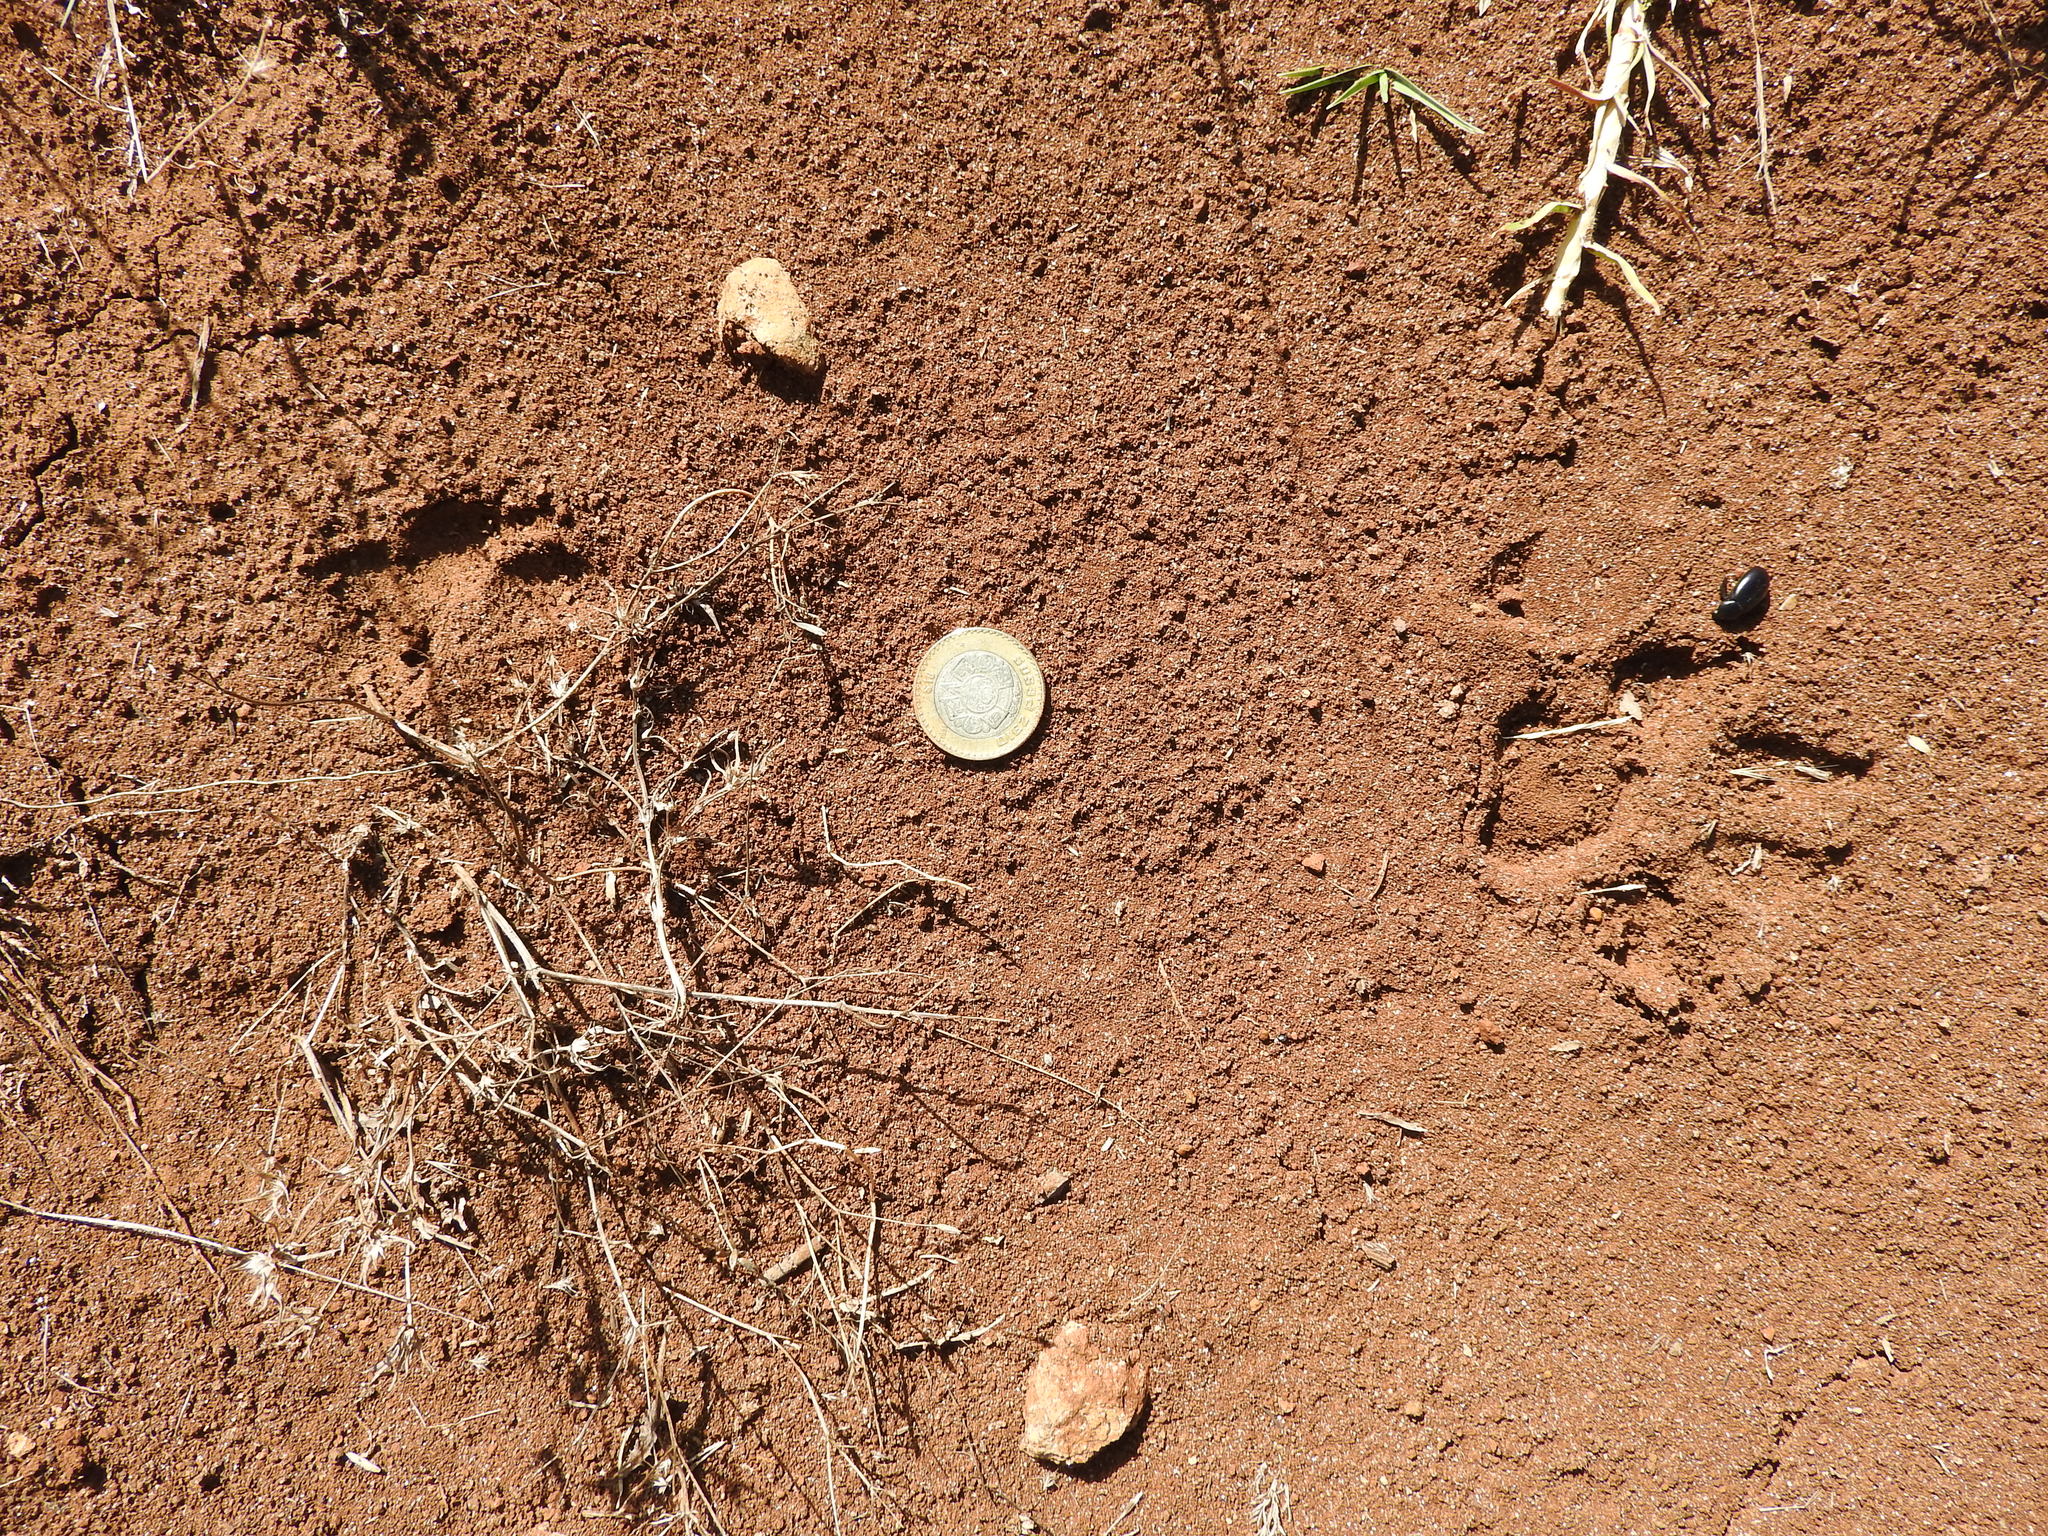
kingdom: Animalia
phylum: Chordata
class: Mammalia
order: Carnivora
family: Canidae
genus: Canis
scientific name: Canis latrans
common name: Coyote
